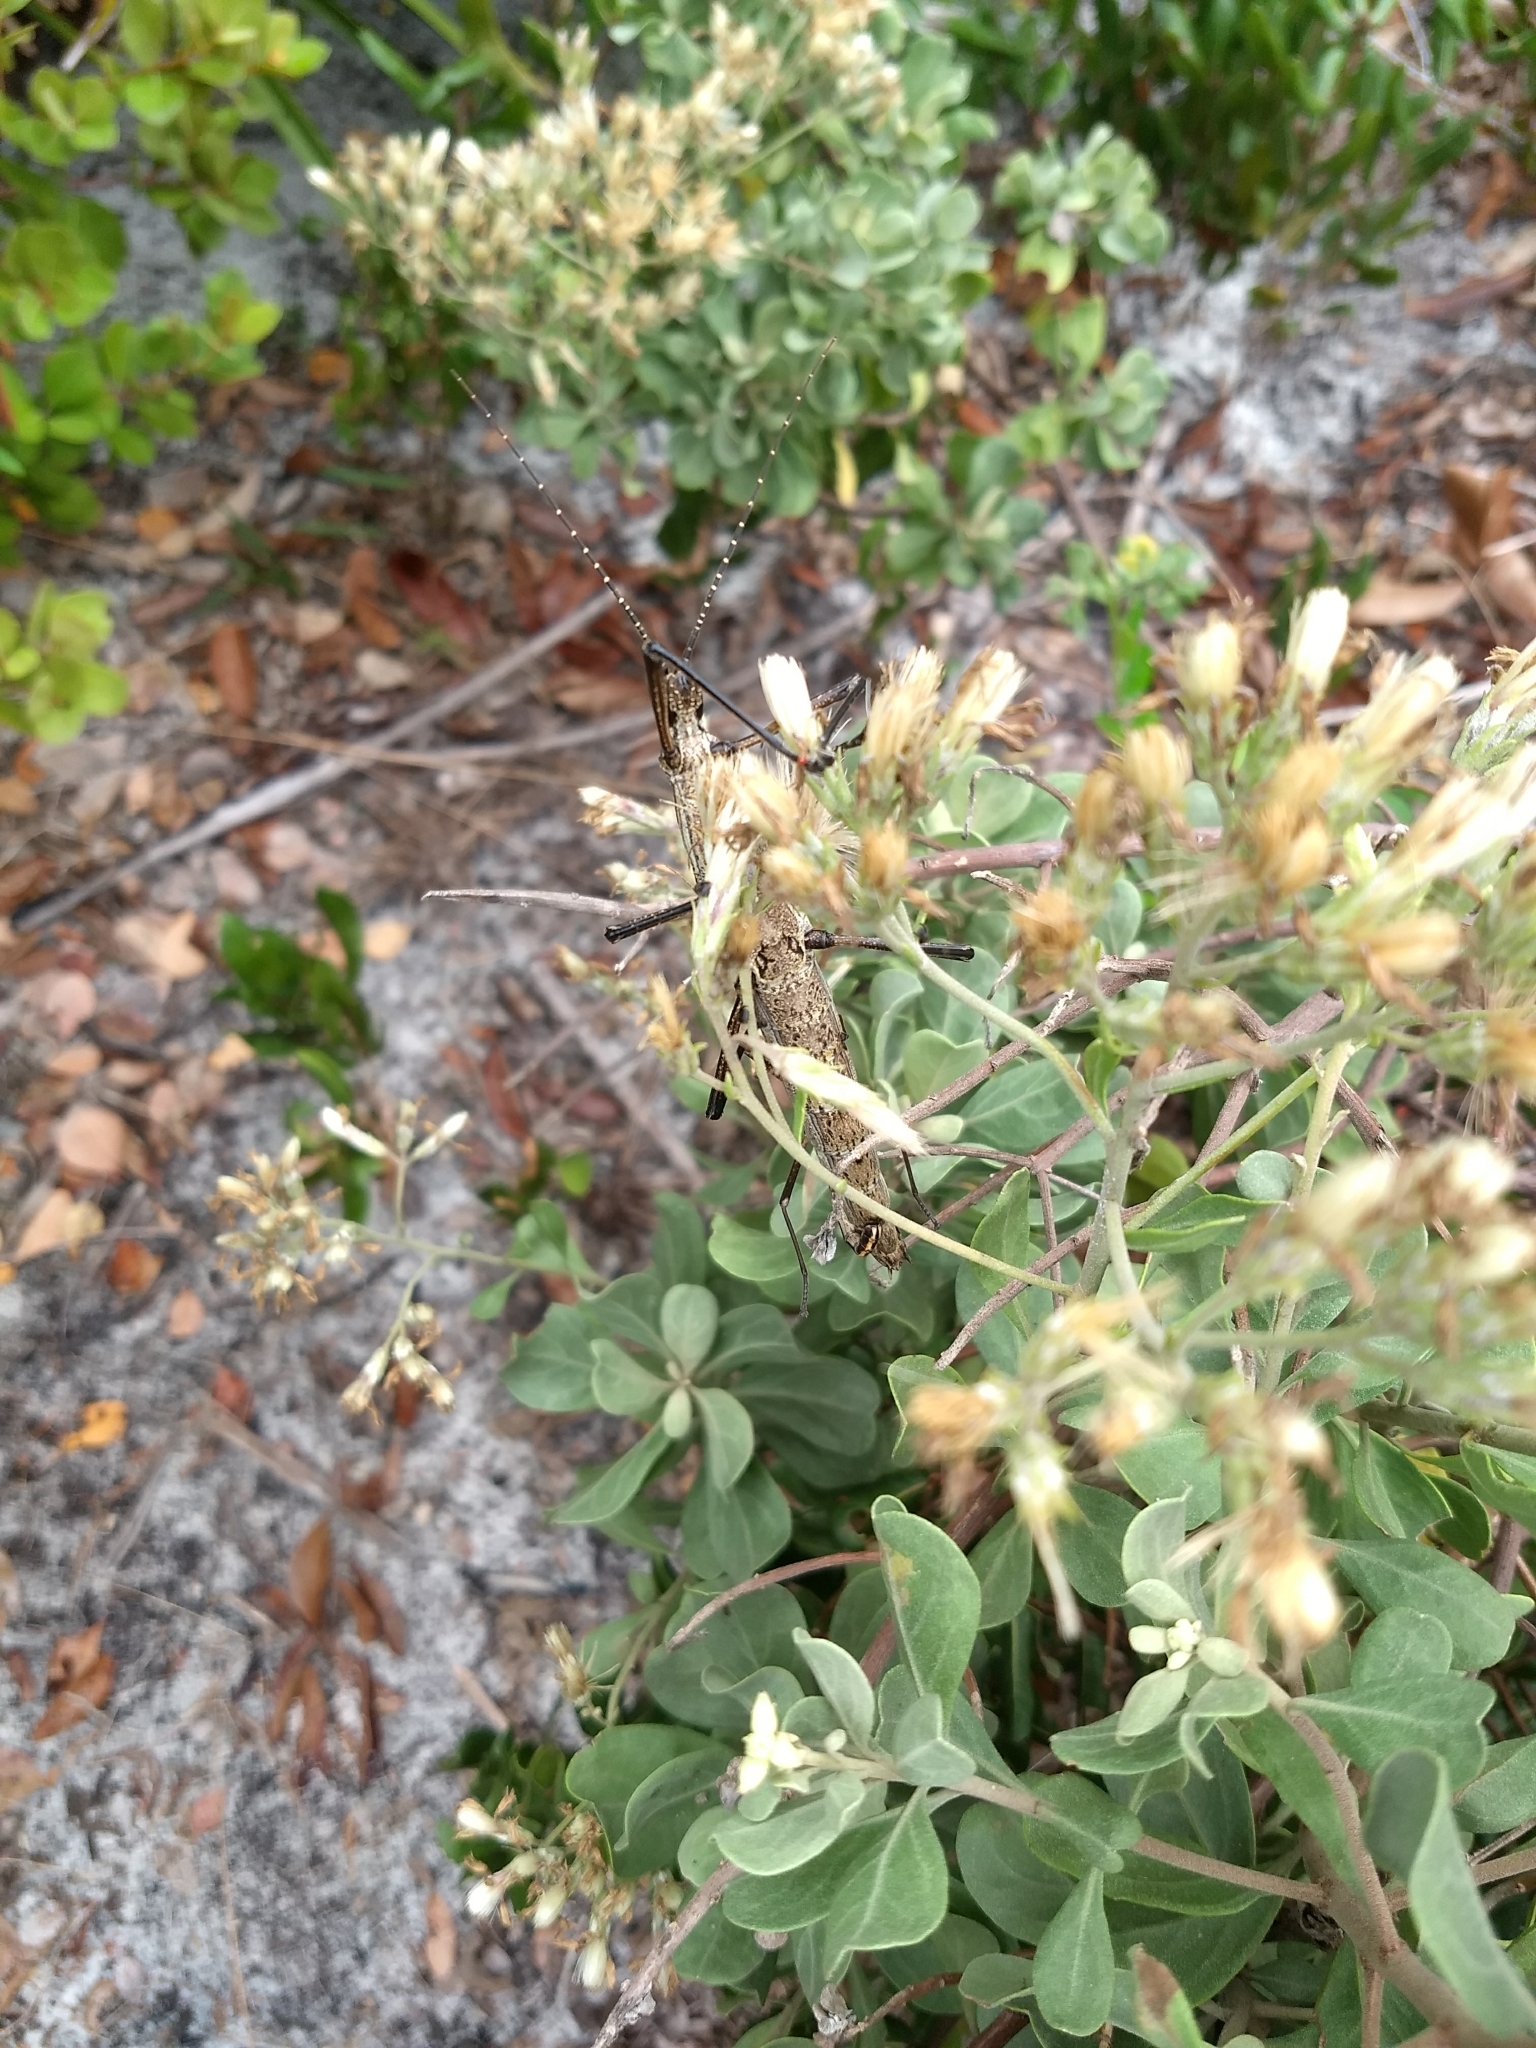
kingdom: Animalia
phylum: Arthropoda
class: Insecta
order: Phasmida
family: Pseudophasmatidae
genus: Anisomorpha
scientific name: Anisomorpha buprestoides
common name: Florida stick insect
